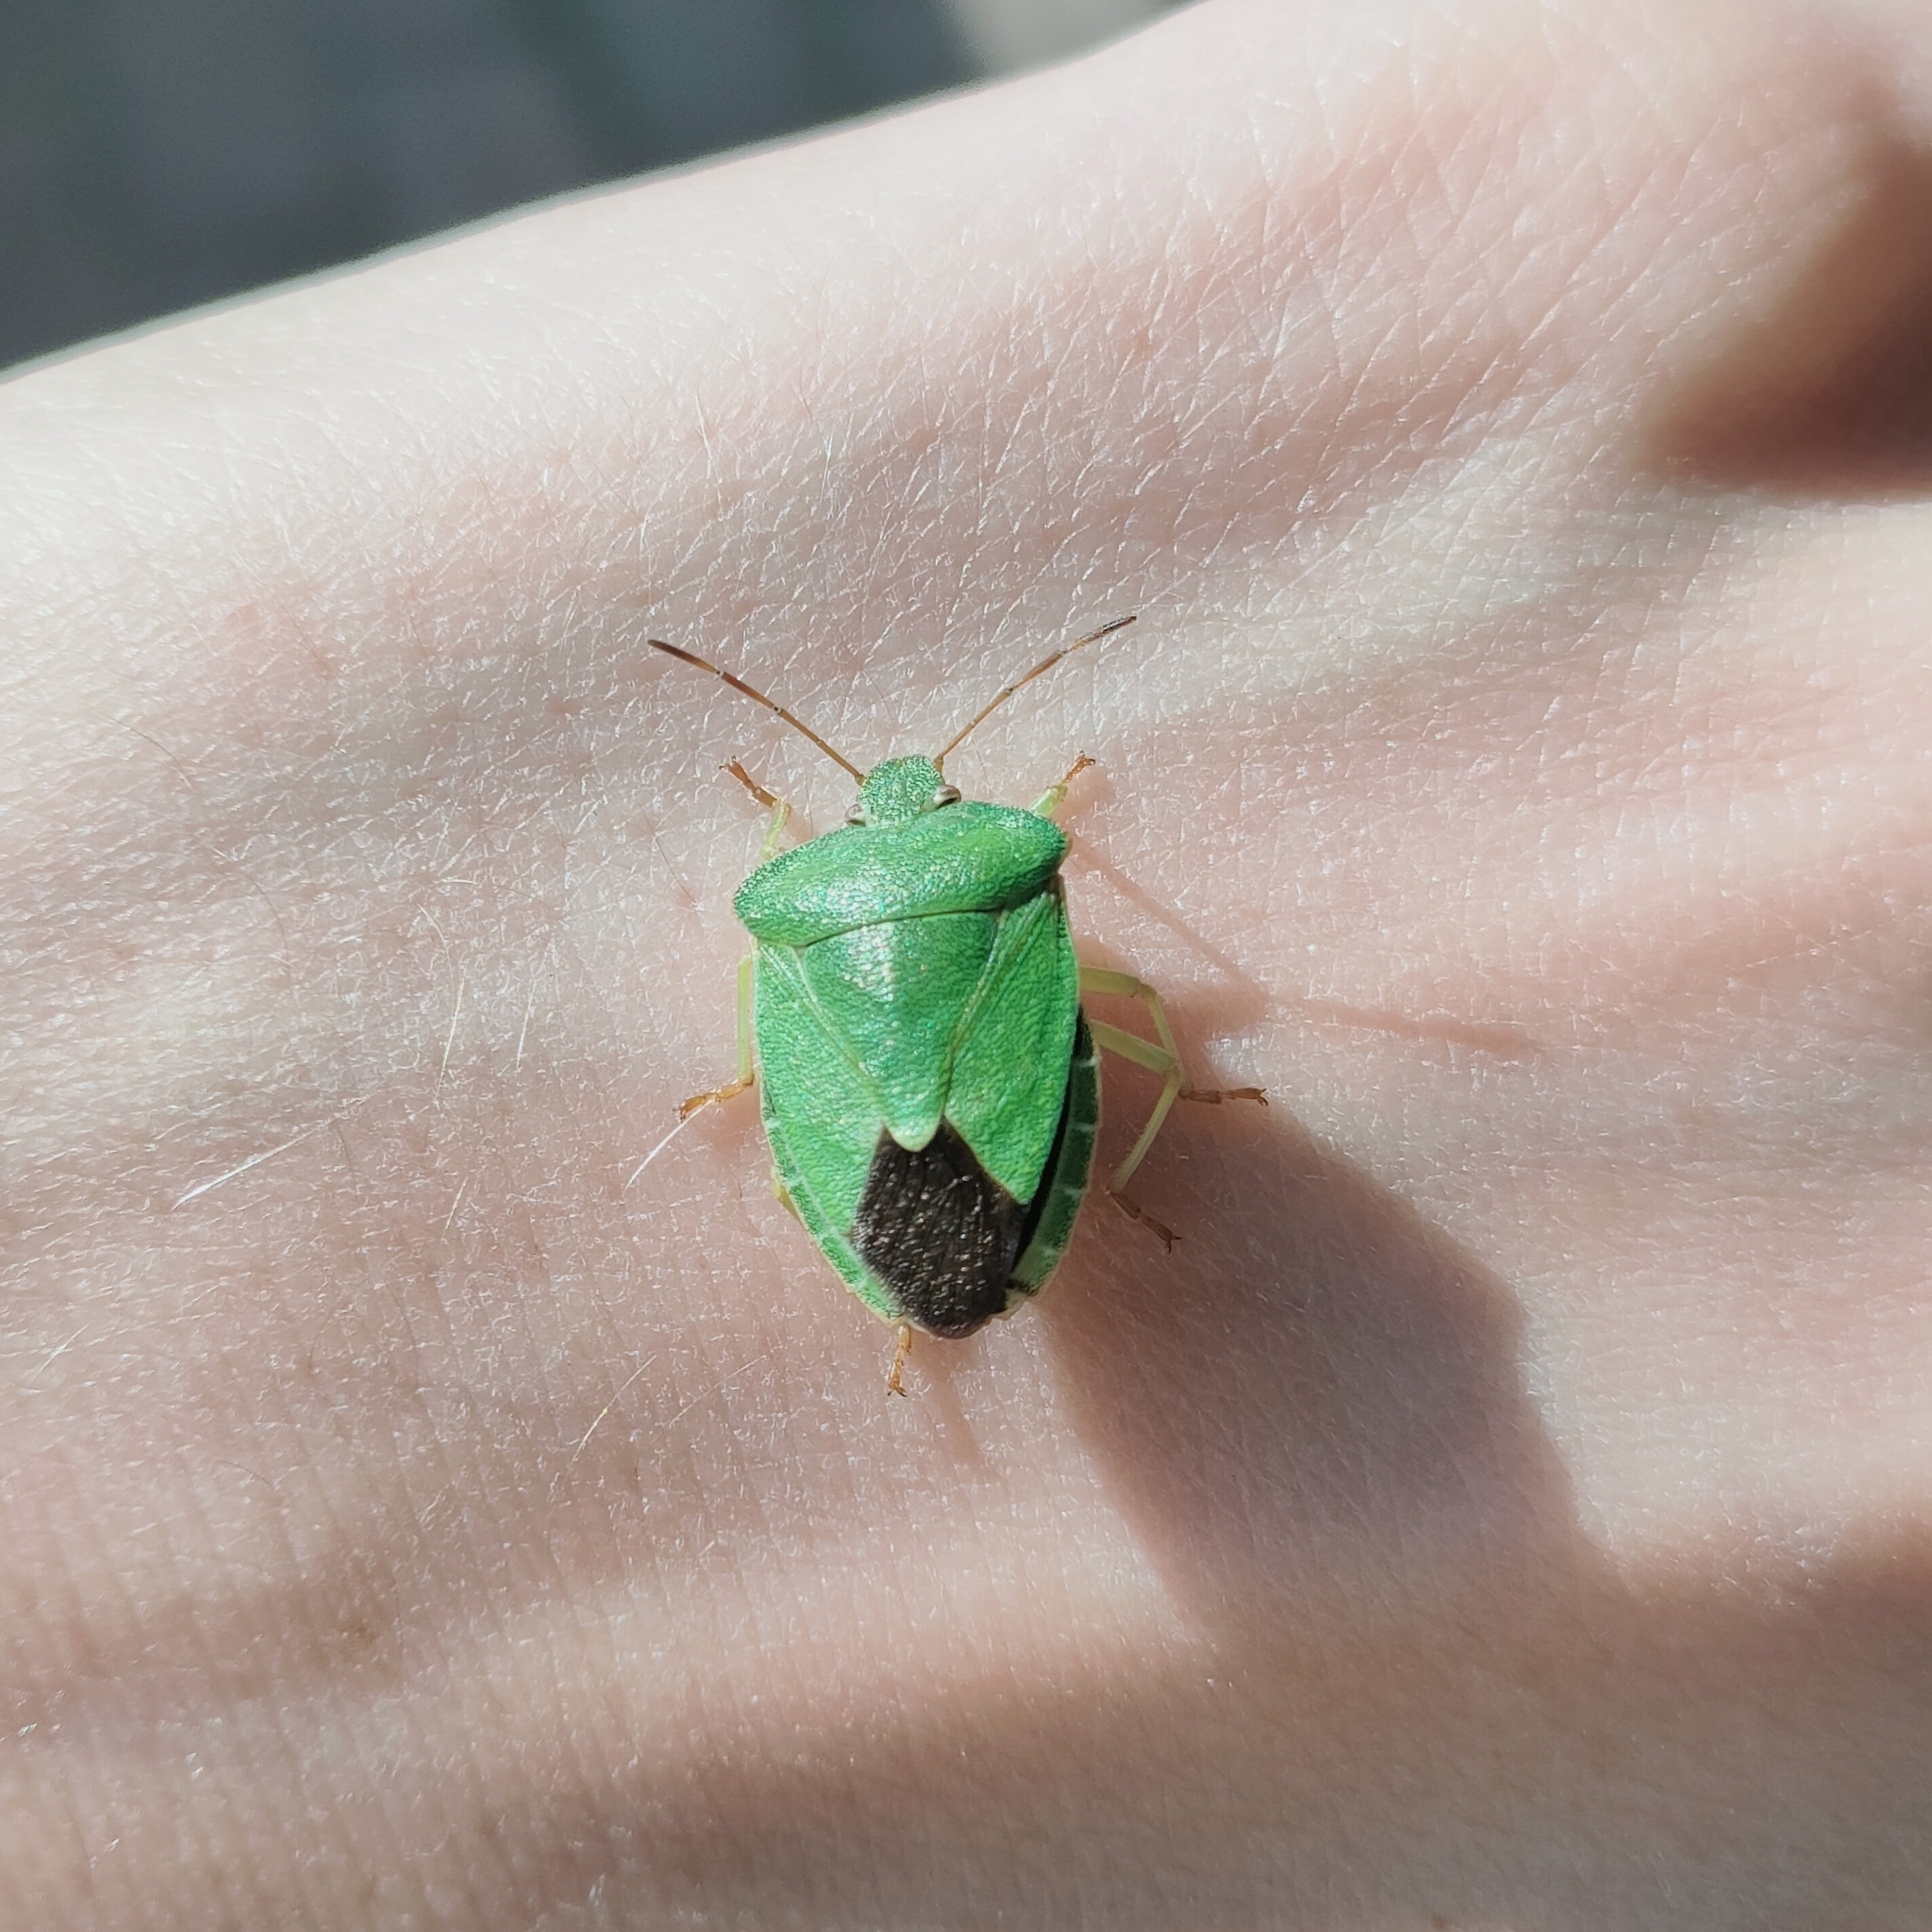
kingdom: Animalia
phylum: Arthropoda
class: Insecta
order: Hemiptera
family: Pentatomidae
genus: Palomena
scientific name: Palomena prasina
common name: Green shieldbug
